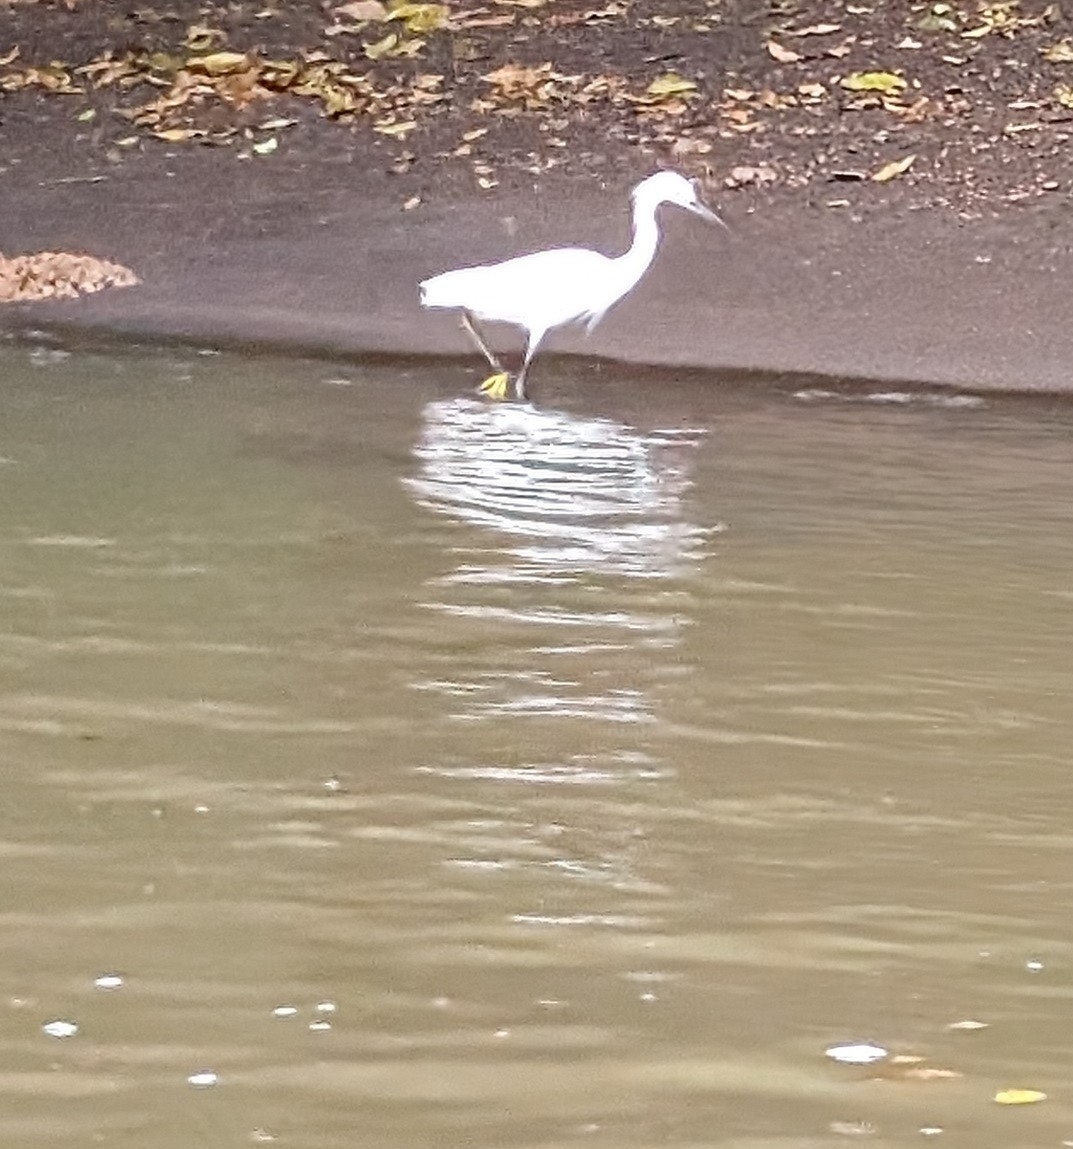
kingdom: Animalia
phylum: Chordata
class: Aves
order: Pelecaniformes
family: Ardeidae
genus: Egretta
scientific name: Egretta thula
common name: Snowy egret
